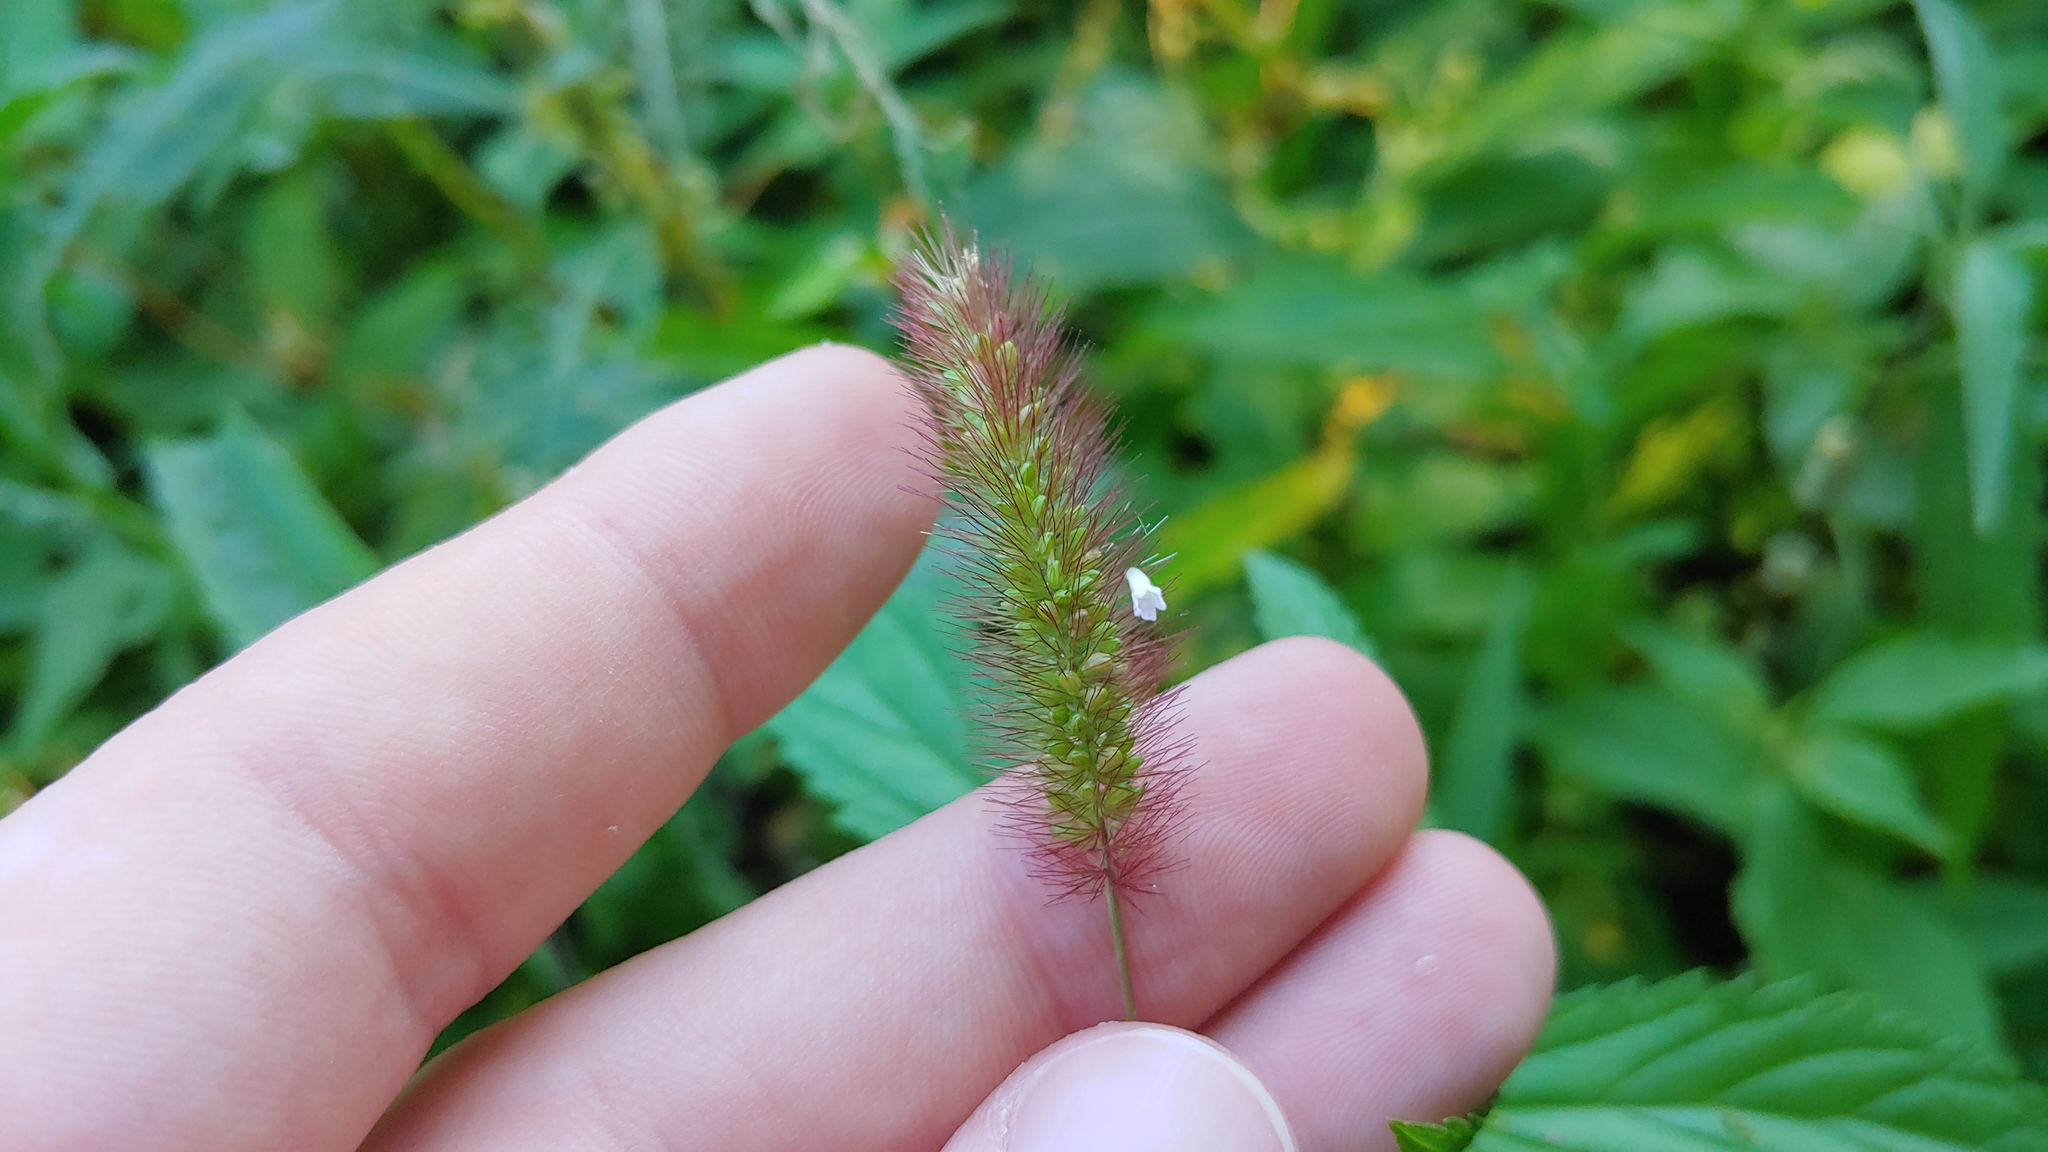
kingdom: Plantae
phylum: Tracheophyta
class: Liliopsida
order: Poales
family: Poaceae
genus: Setaria
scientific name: Setaria viridis
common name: Green bristlegrass
